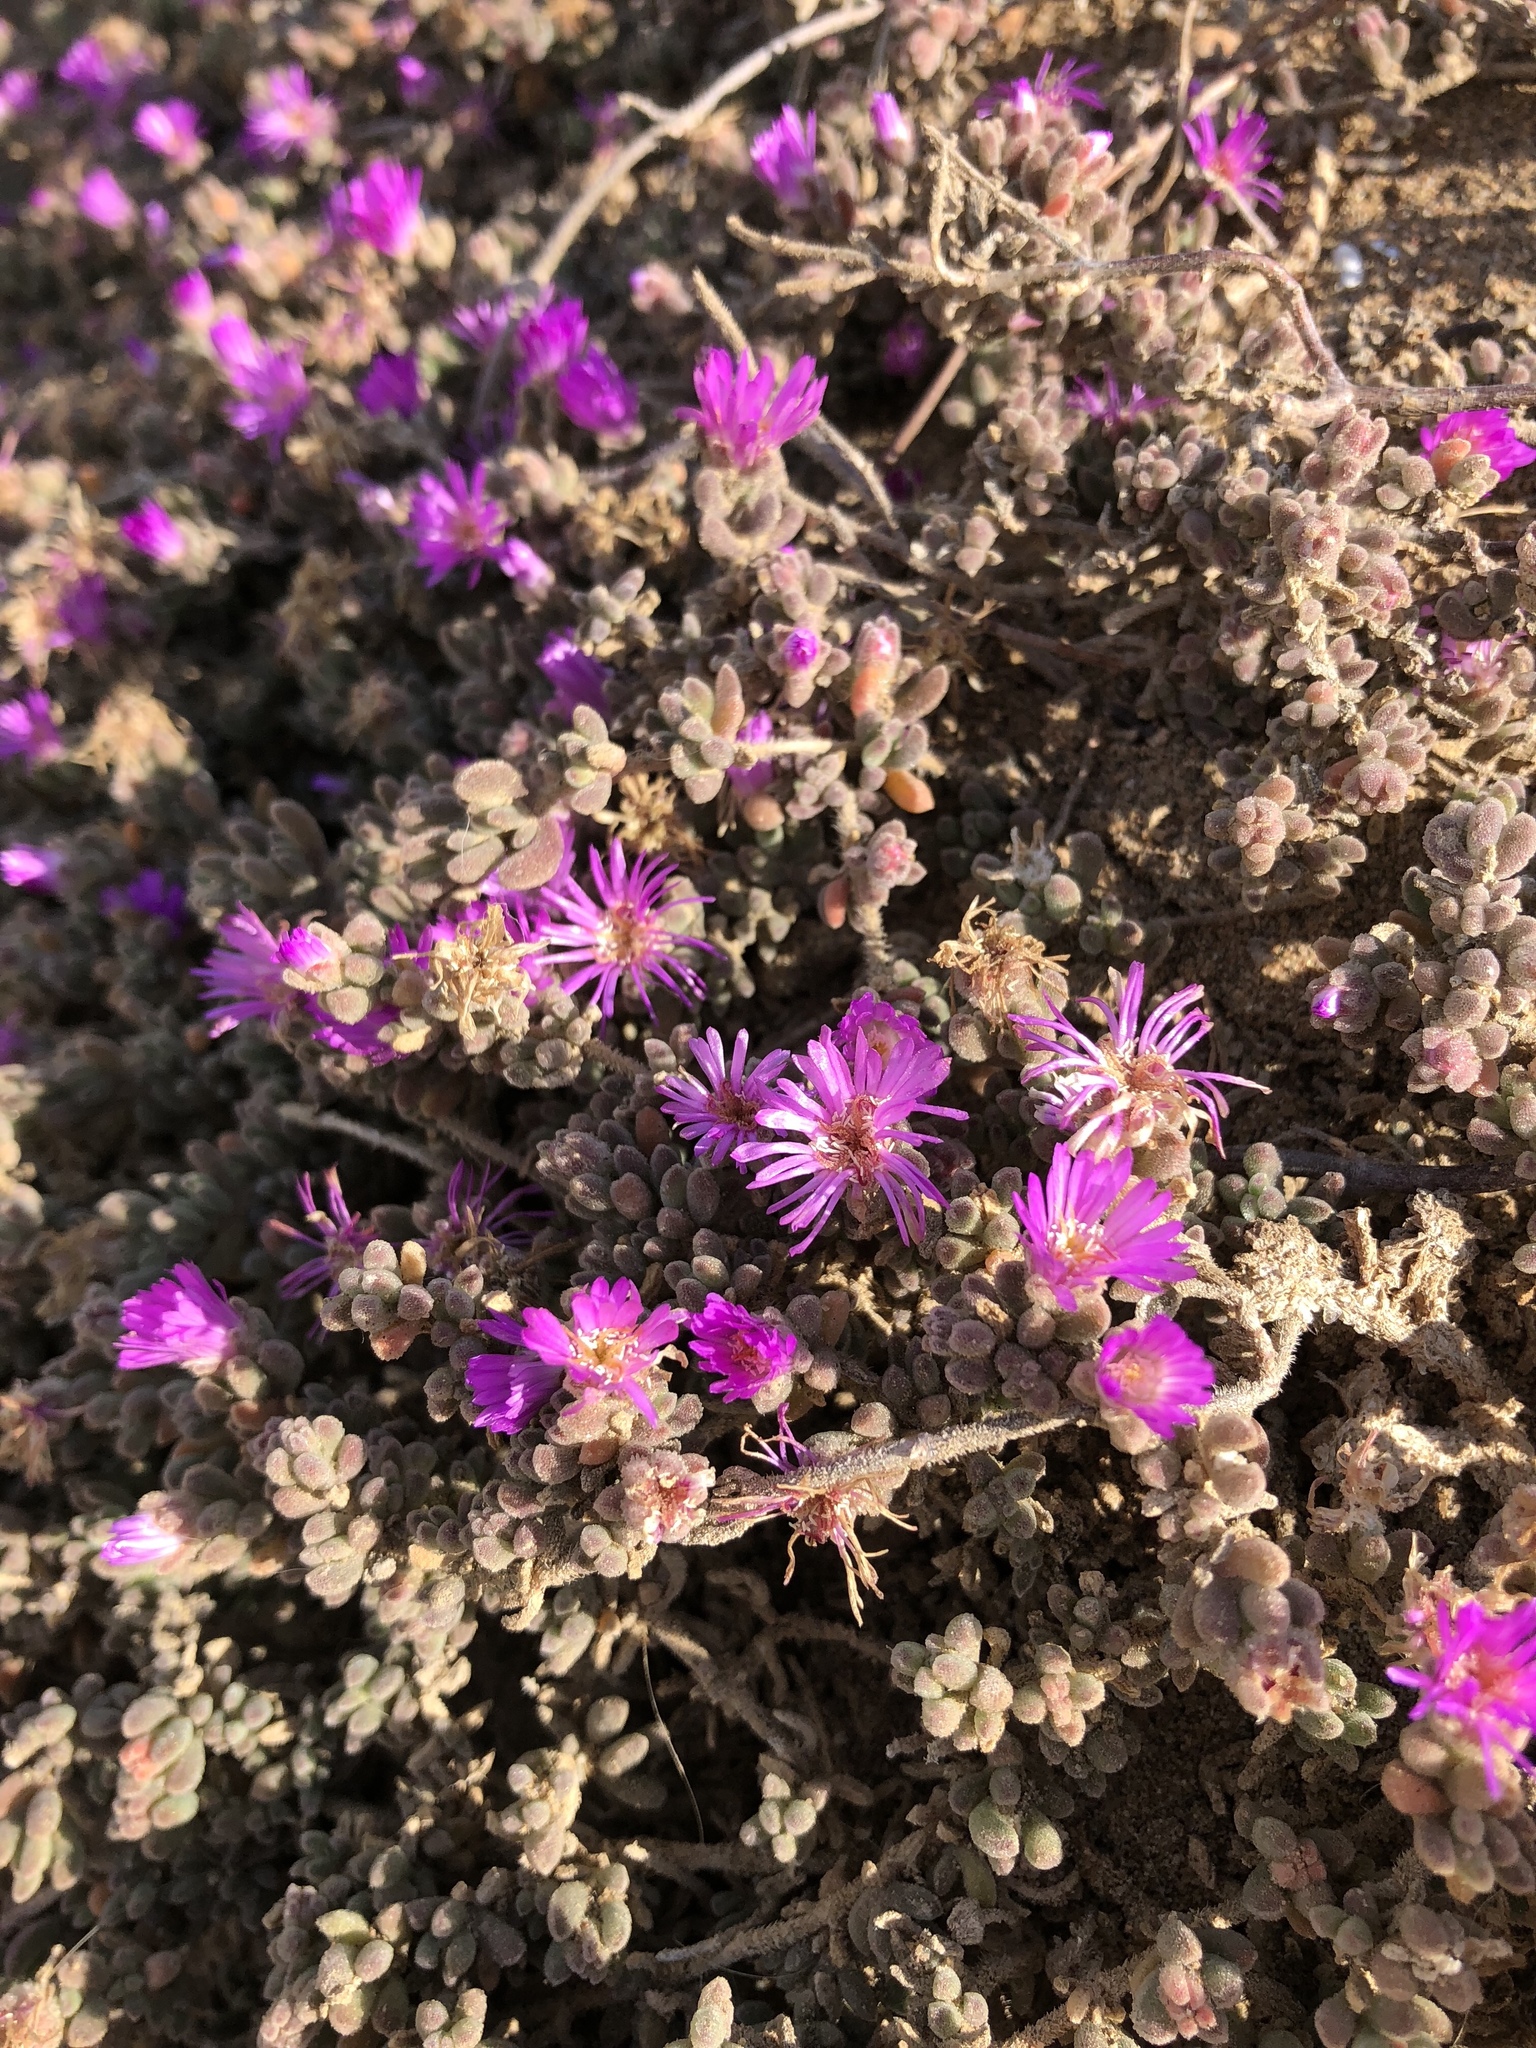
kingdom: Plantae
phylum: Tracheophyta
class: Magnoliopsida
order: Caryophyllales
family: Aizoaceae
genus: Drosanthemum
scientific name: Drosanthemum floribundum
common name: Pale dewplant
